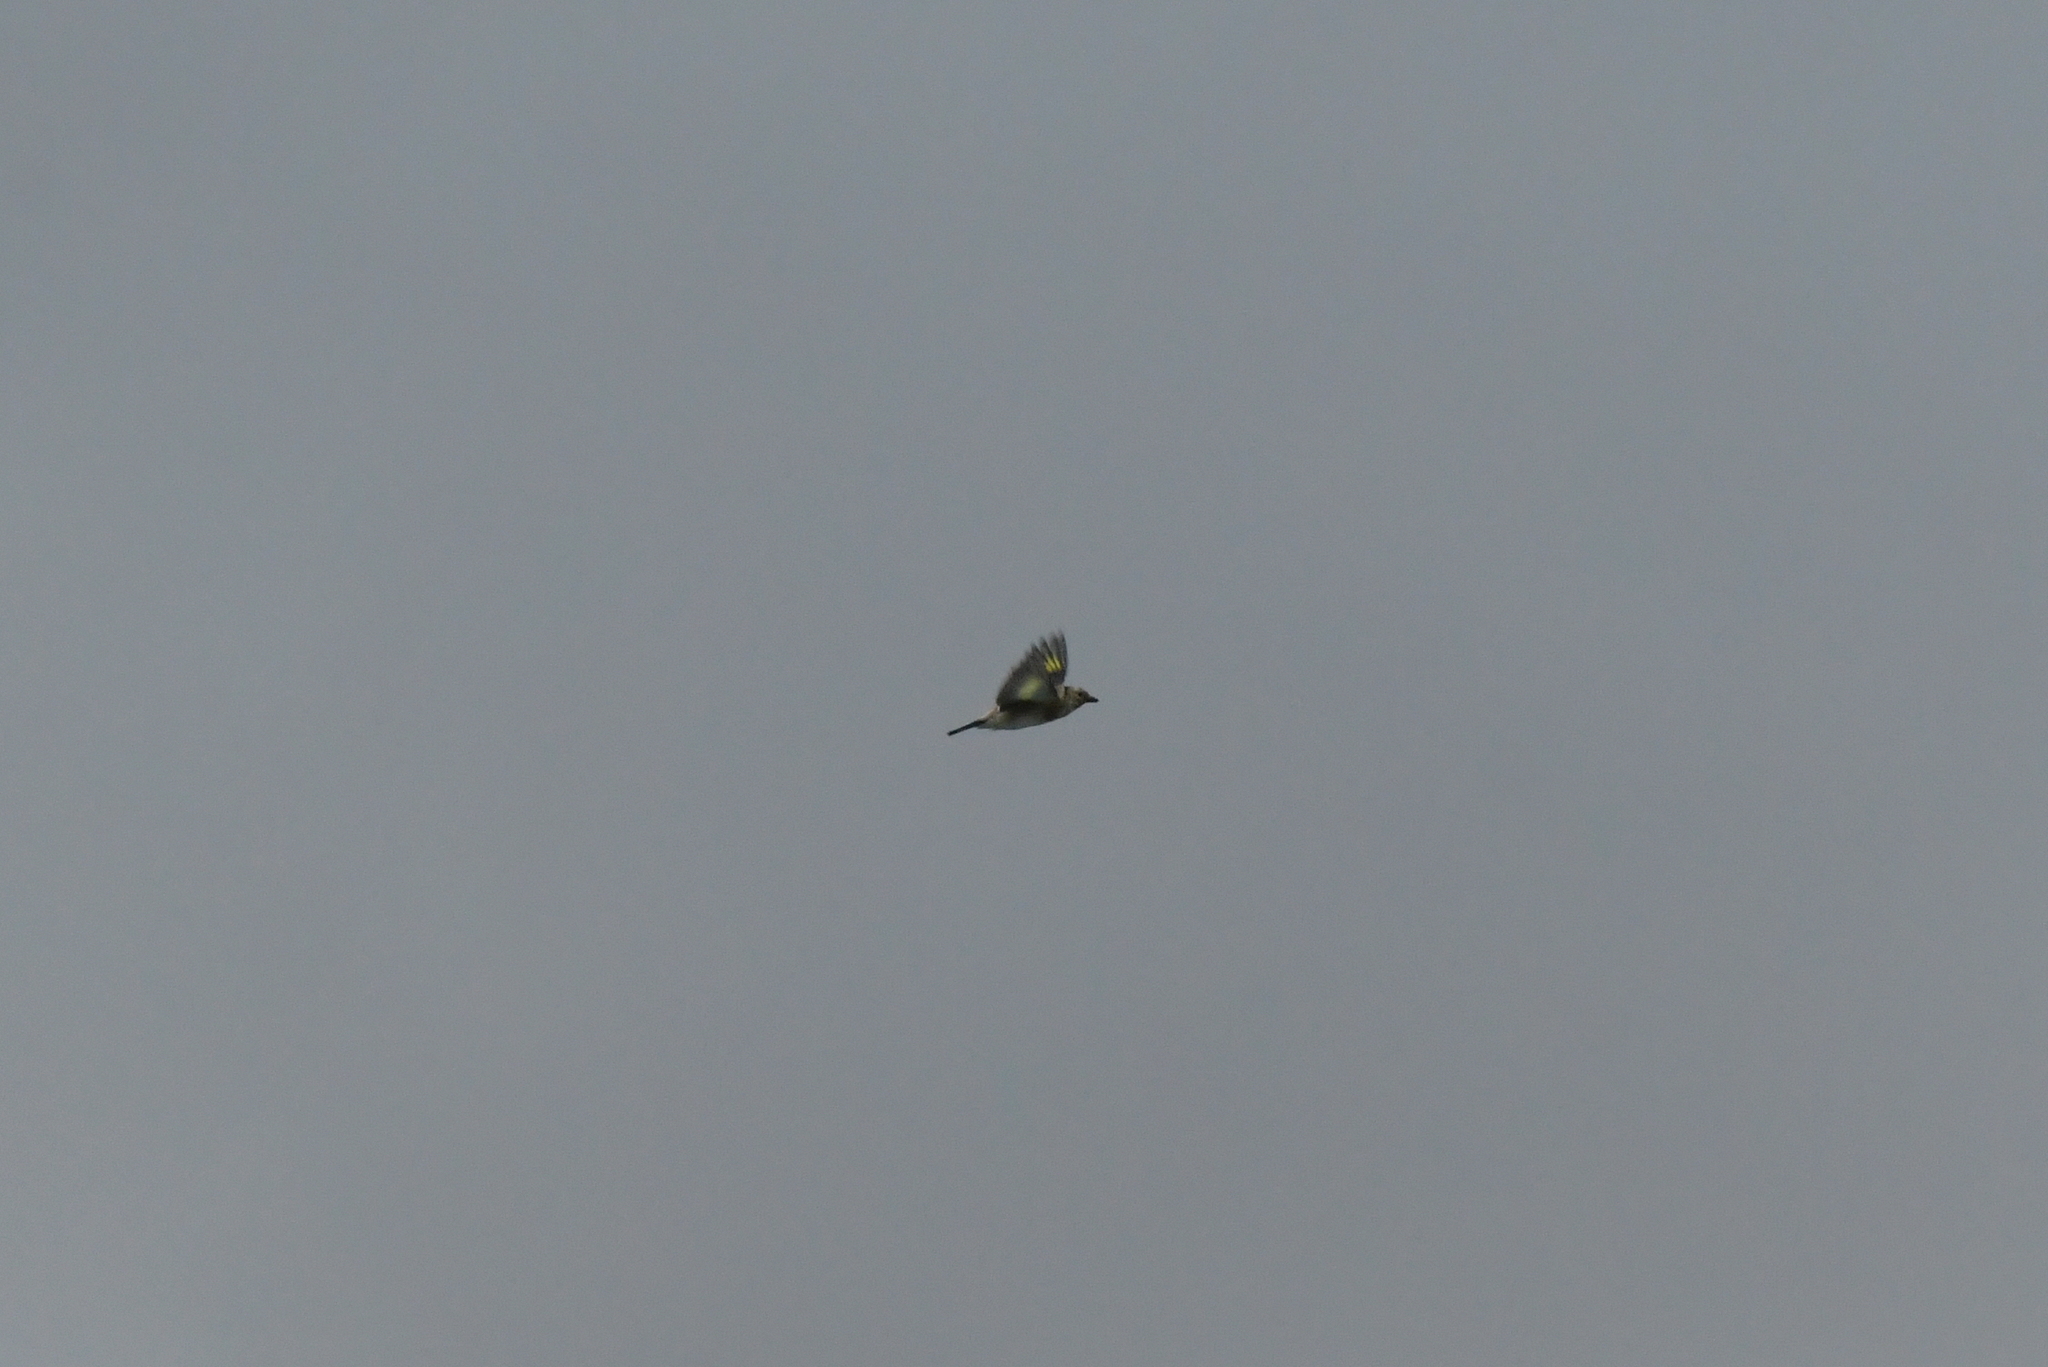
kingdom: Animalia
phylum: Chordata
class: Aves
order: Passeriformes
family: Fringillidae
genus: Carduelis
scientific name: Carduelis carduelis
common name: European goldfinch
